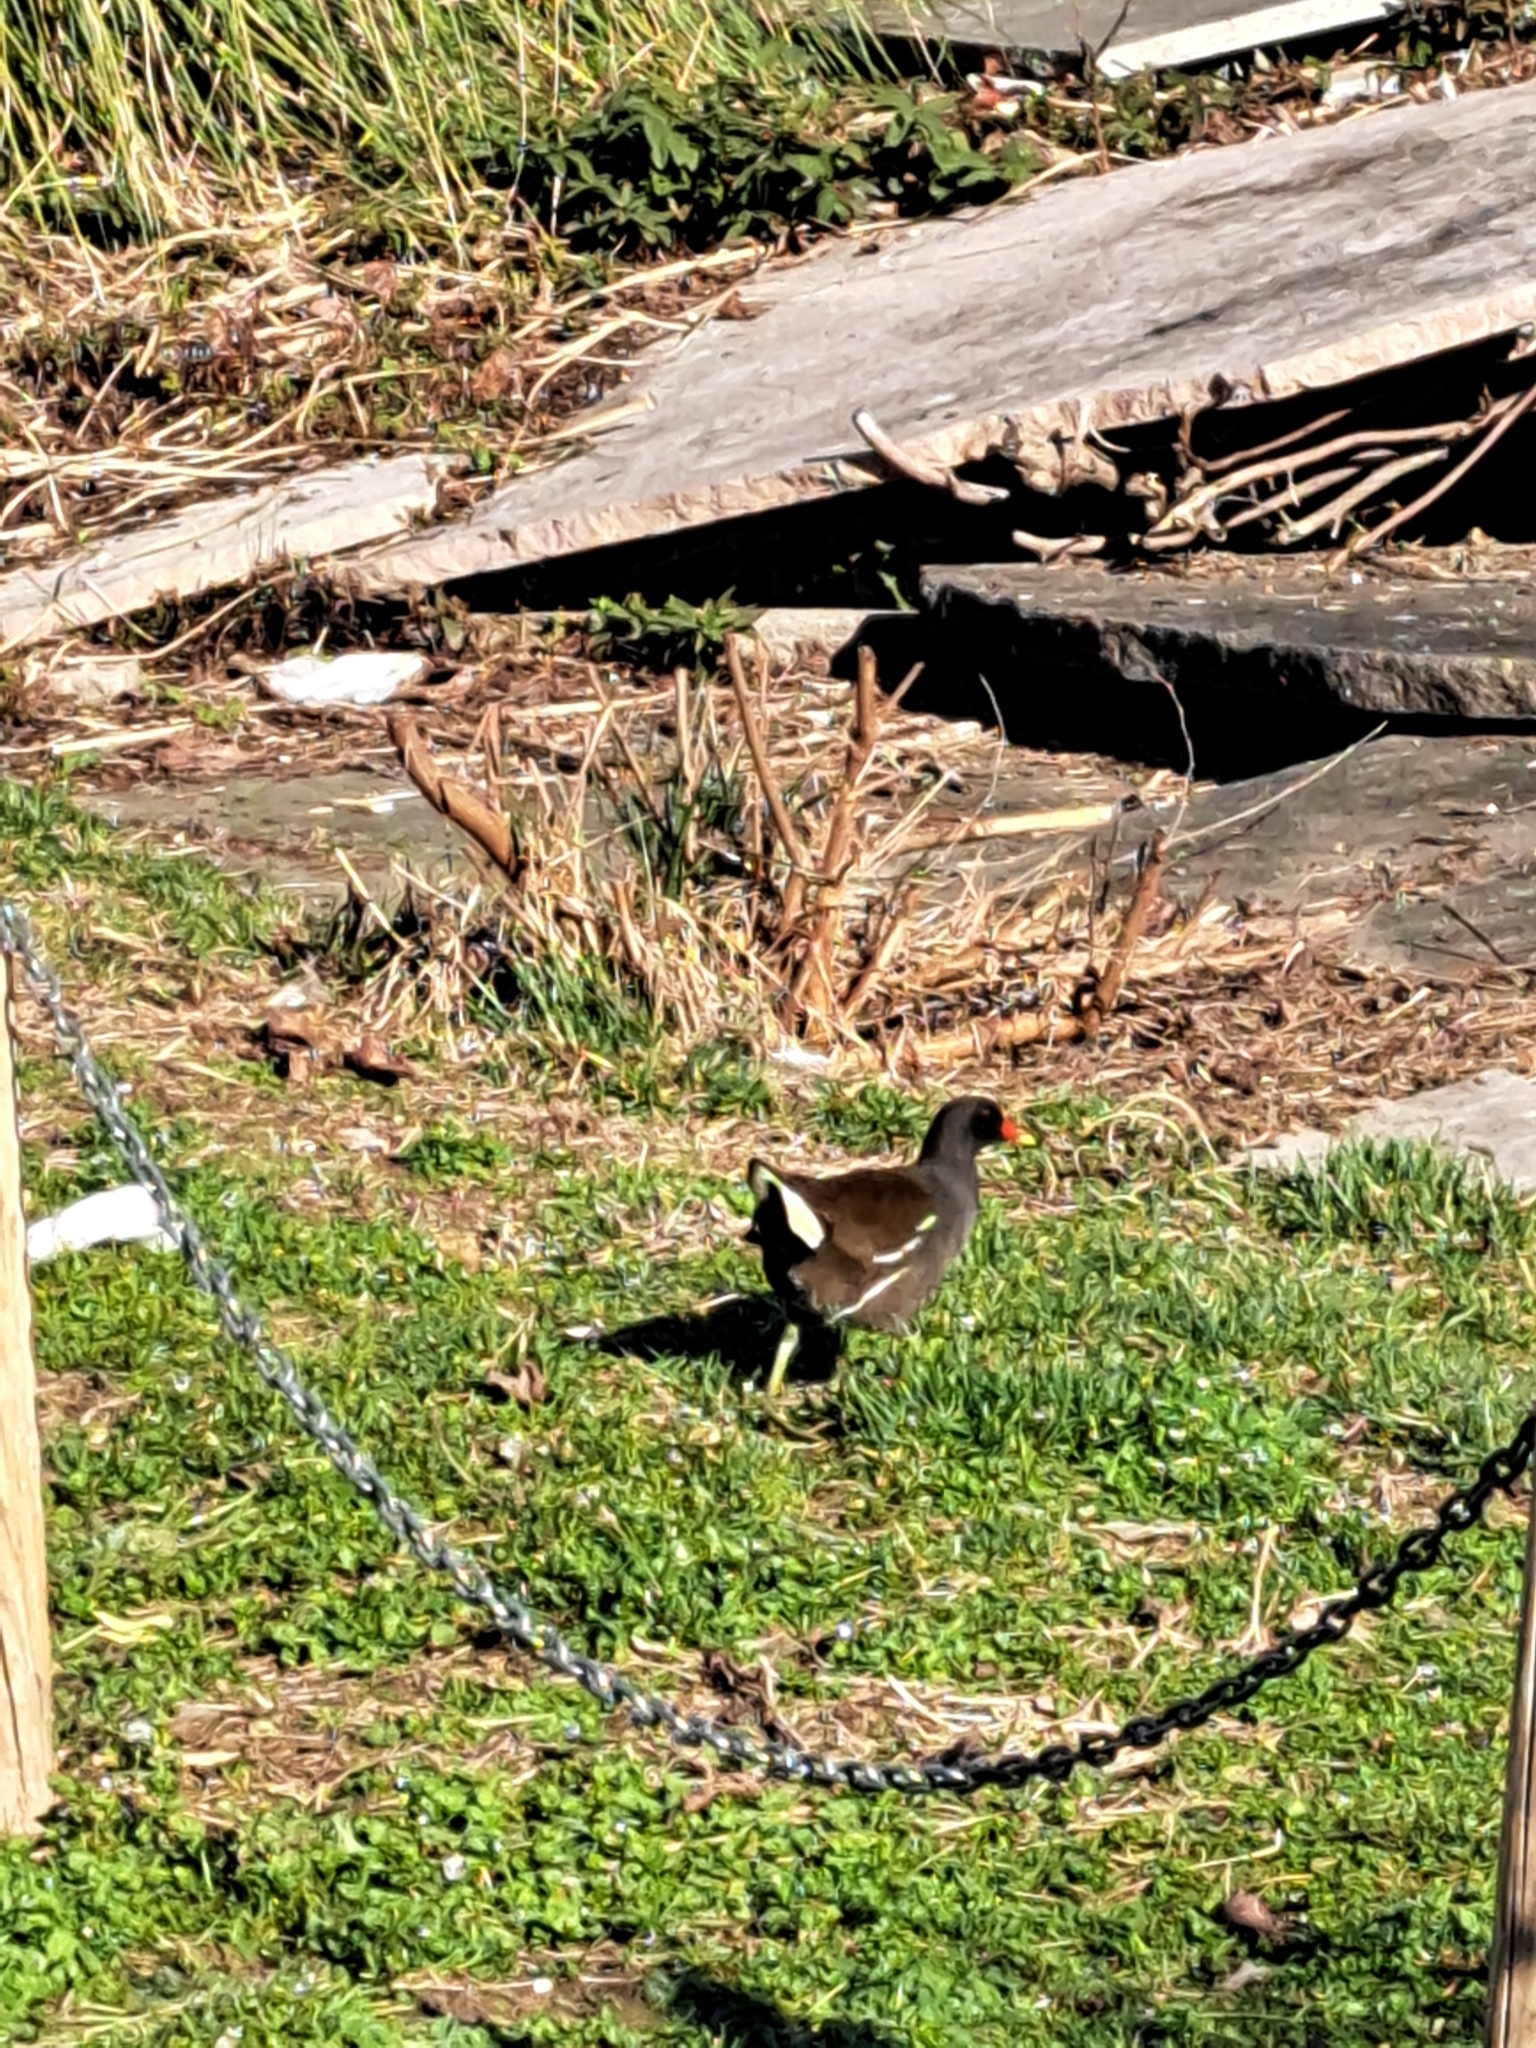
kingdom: Animalia
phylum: Chordata
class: Aves
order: Gruiformes
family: Rallidae
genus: Gallinula
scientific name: Gallinula chloropus
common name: Common moorhen
